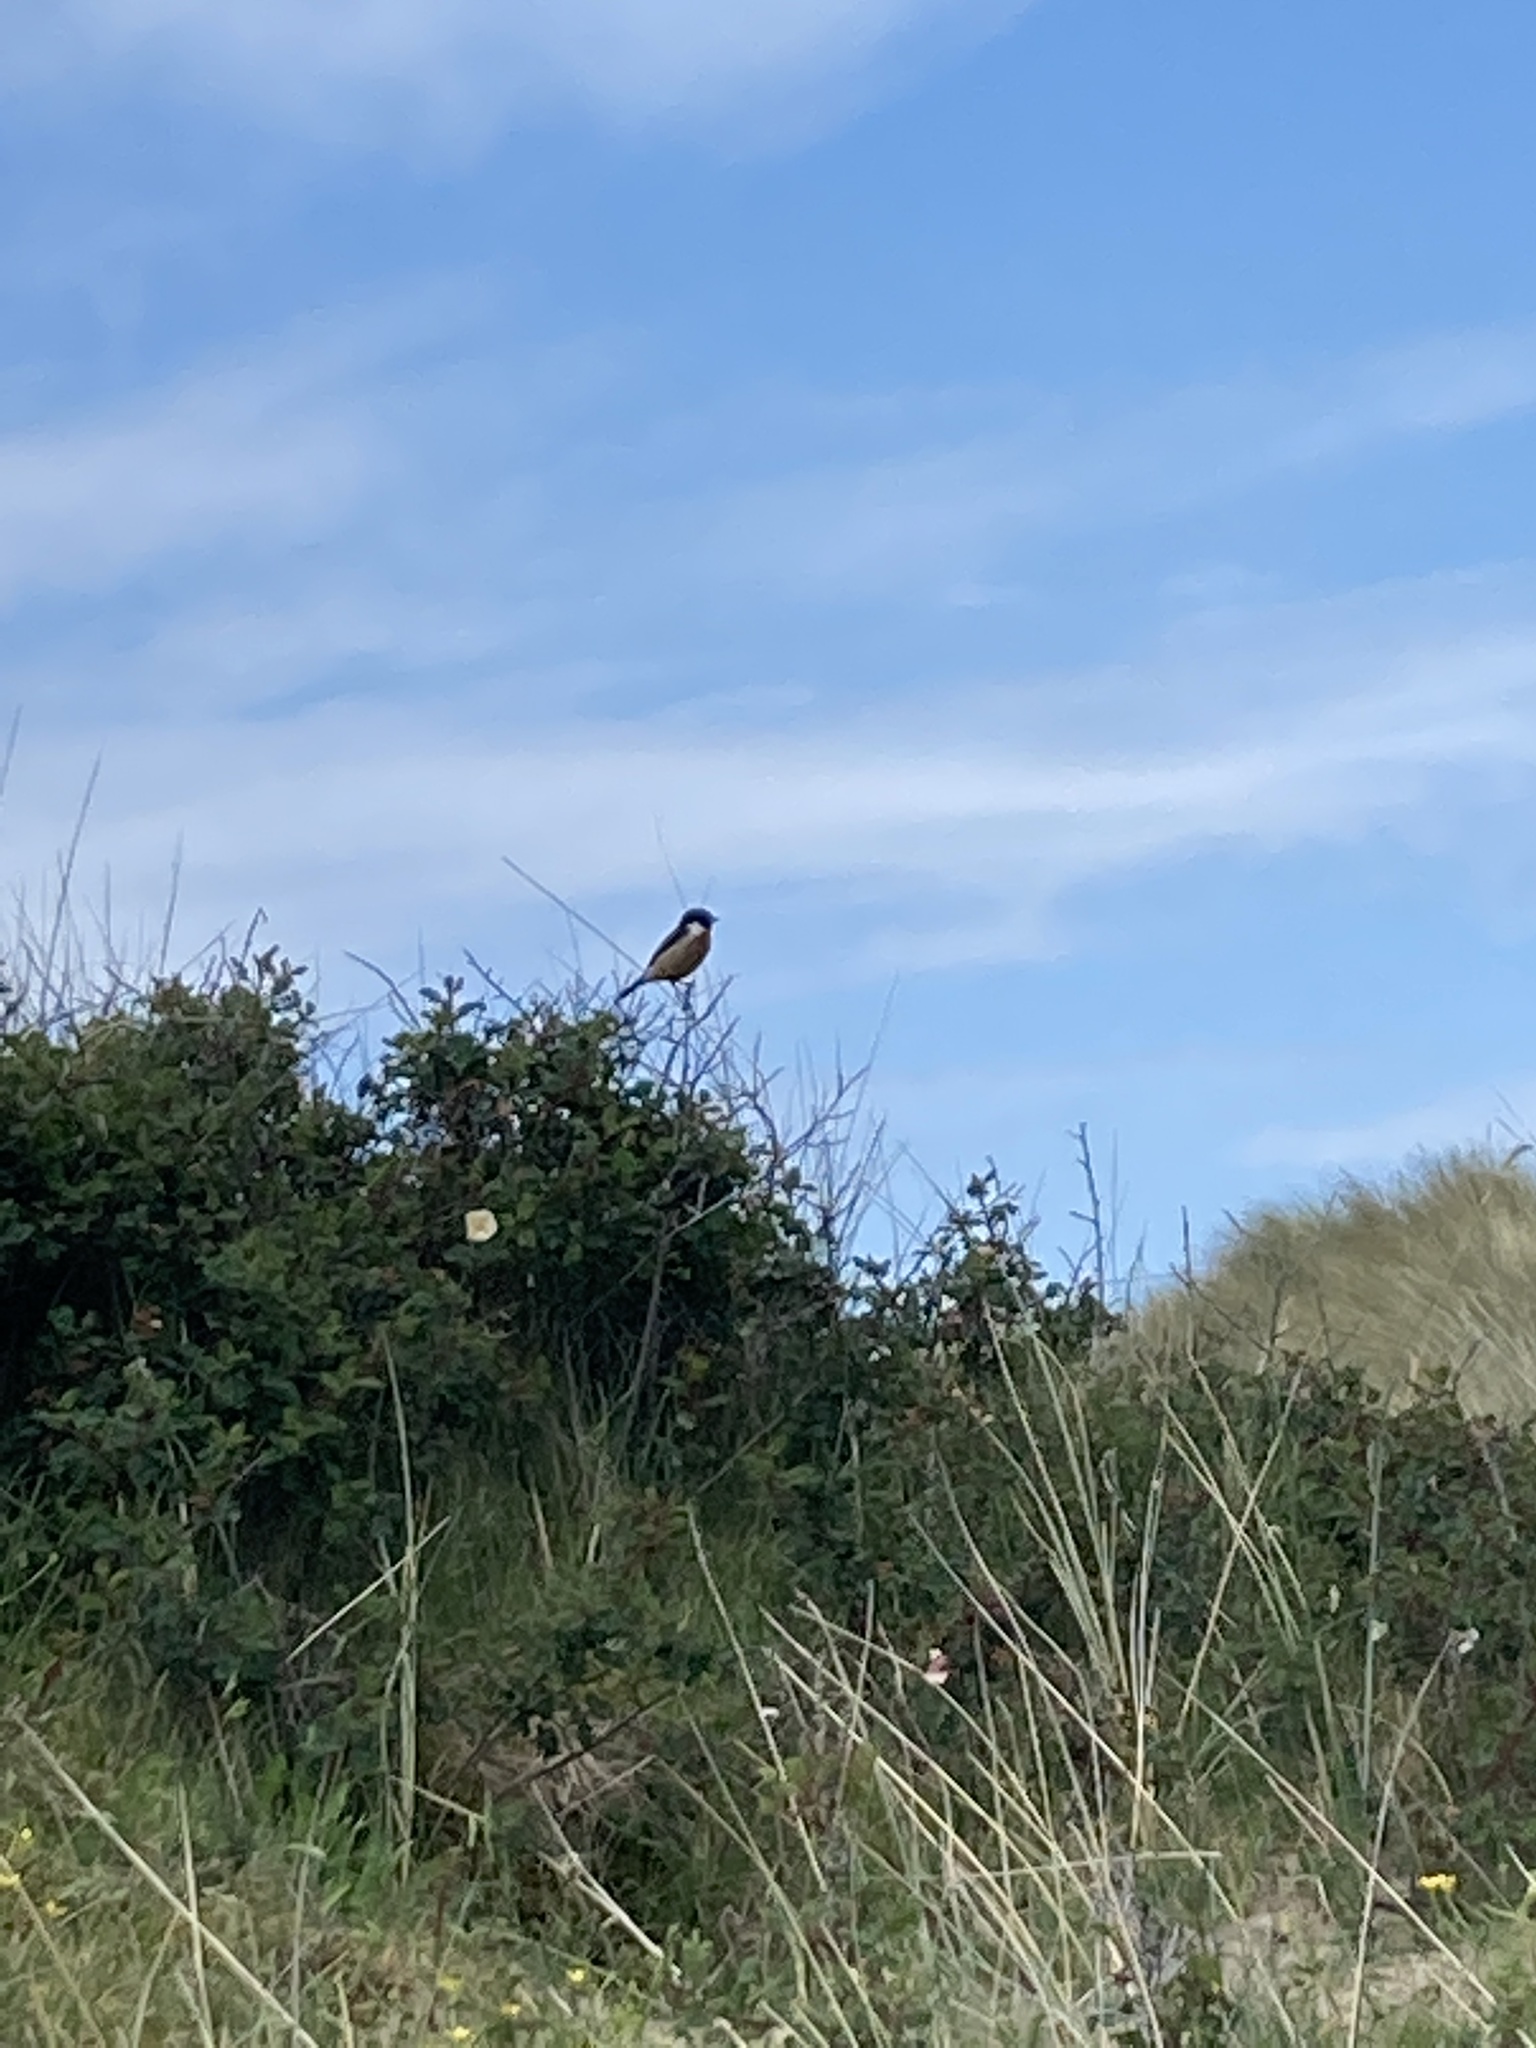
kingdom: Animalia
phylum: Chordata
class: Aves
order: Passeriformes
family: Muscicapidae
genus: Saxicola
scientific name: Saxicola rubicola
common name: European stonechat
